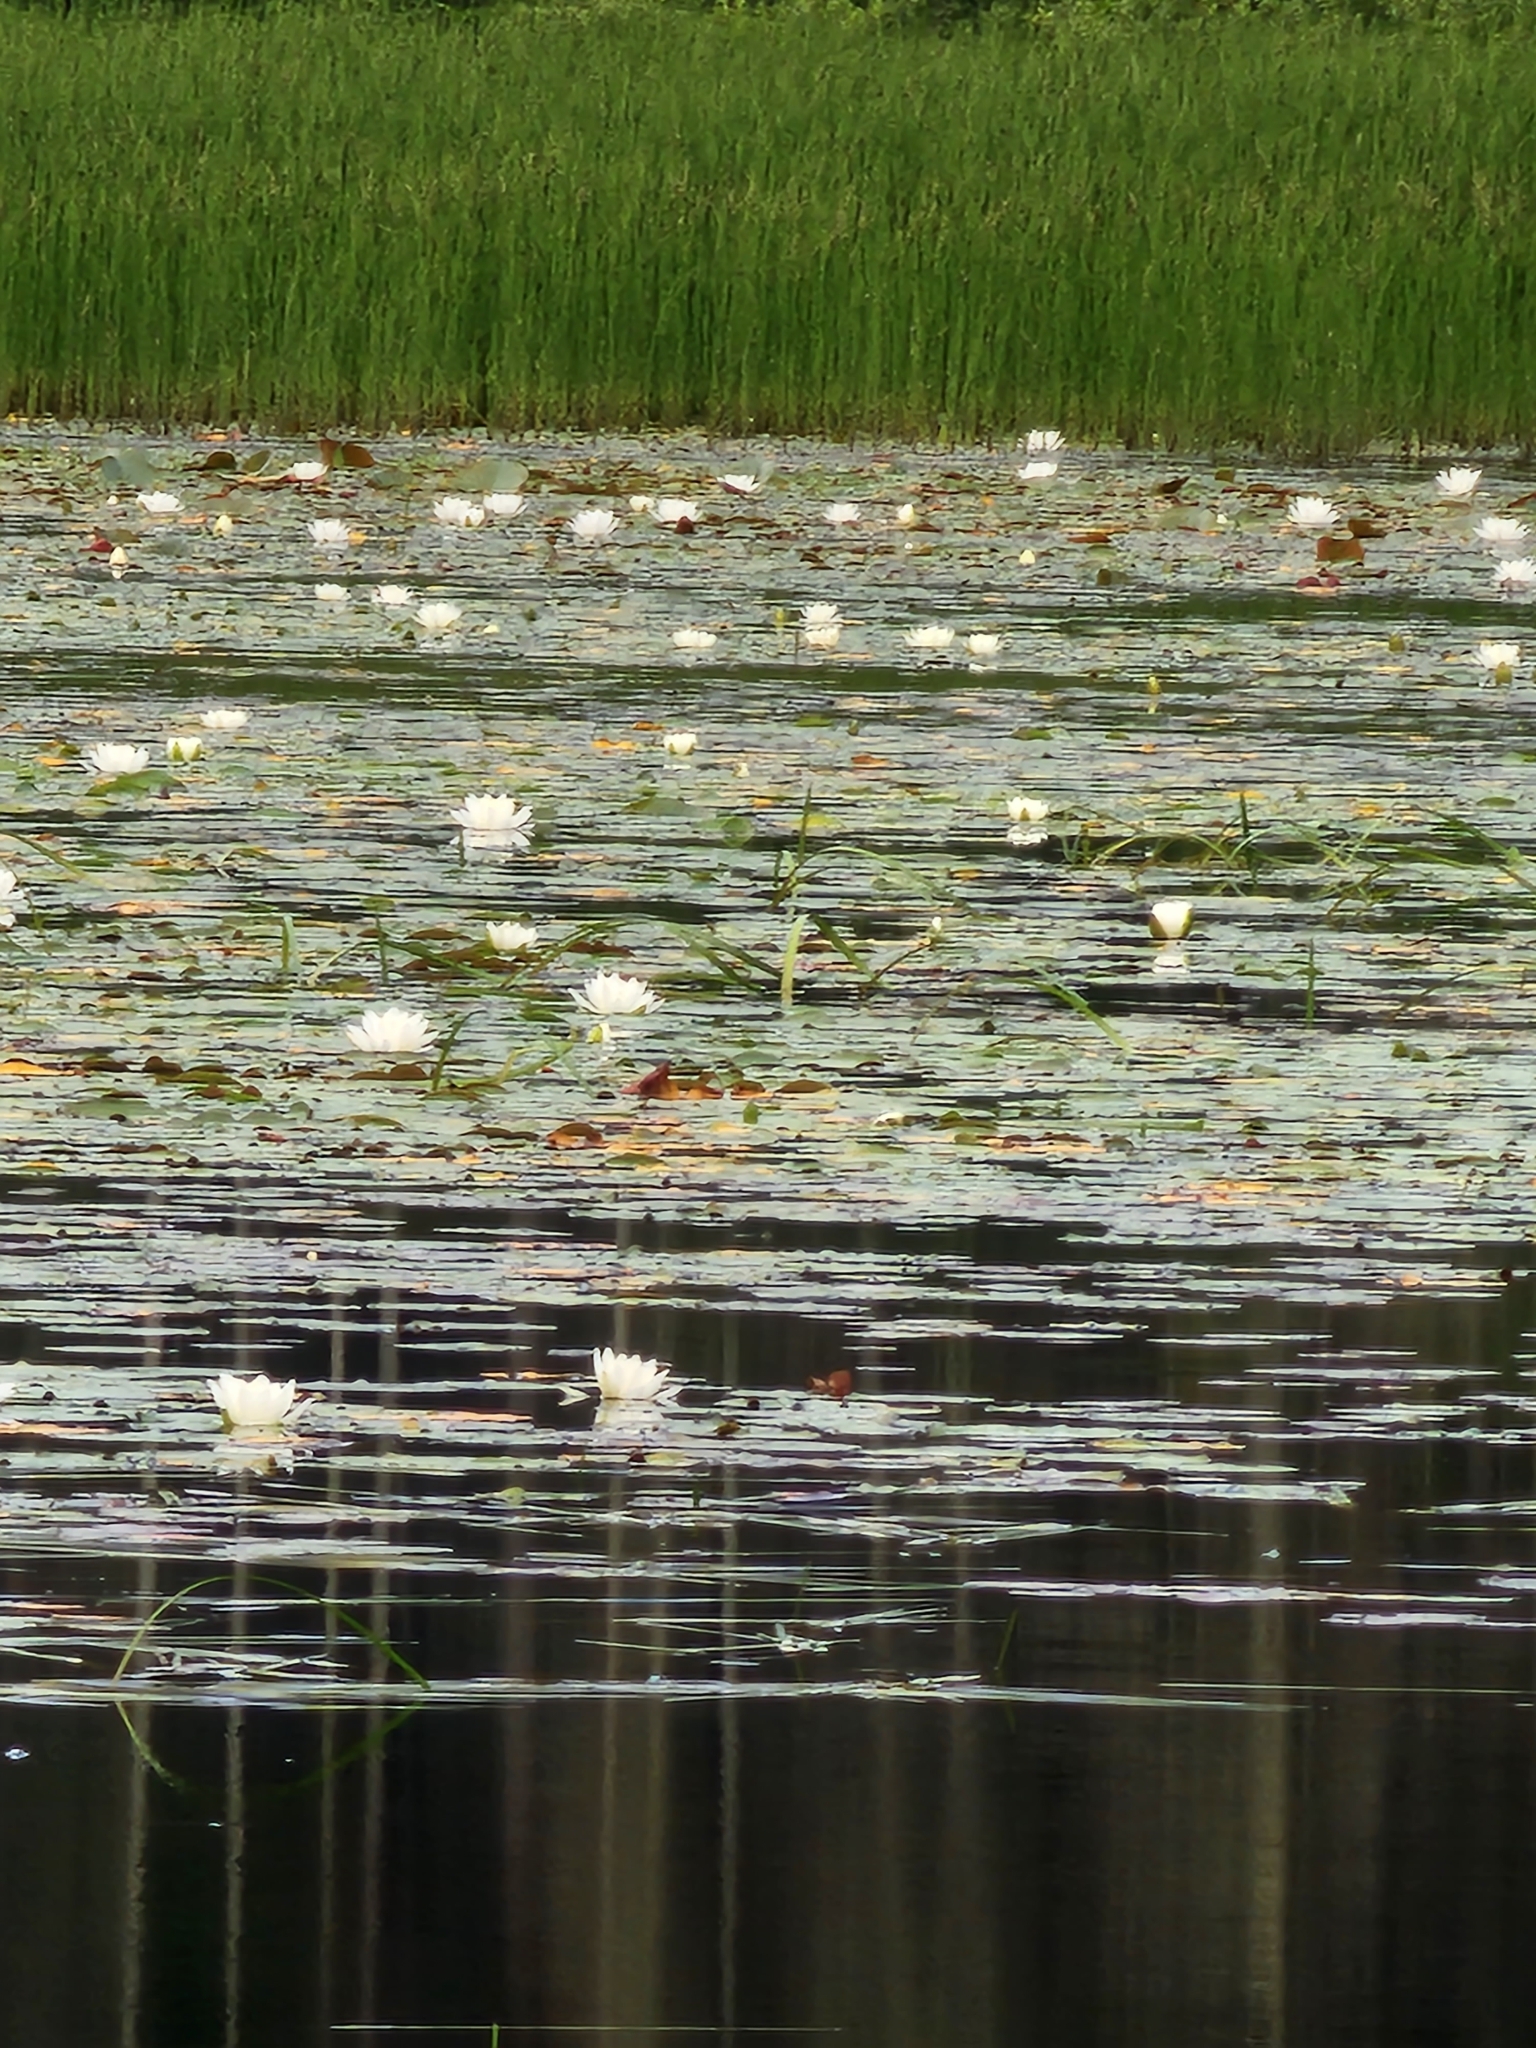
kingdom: Plantae
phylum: Tracheophyta
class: Magnoliopsida
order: Nymphaeales
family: Nymphaeaceae
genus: Nymphaea
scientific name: Nymphaea odorata
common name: Fragrant water-lily
